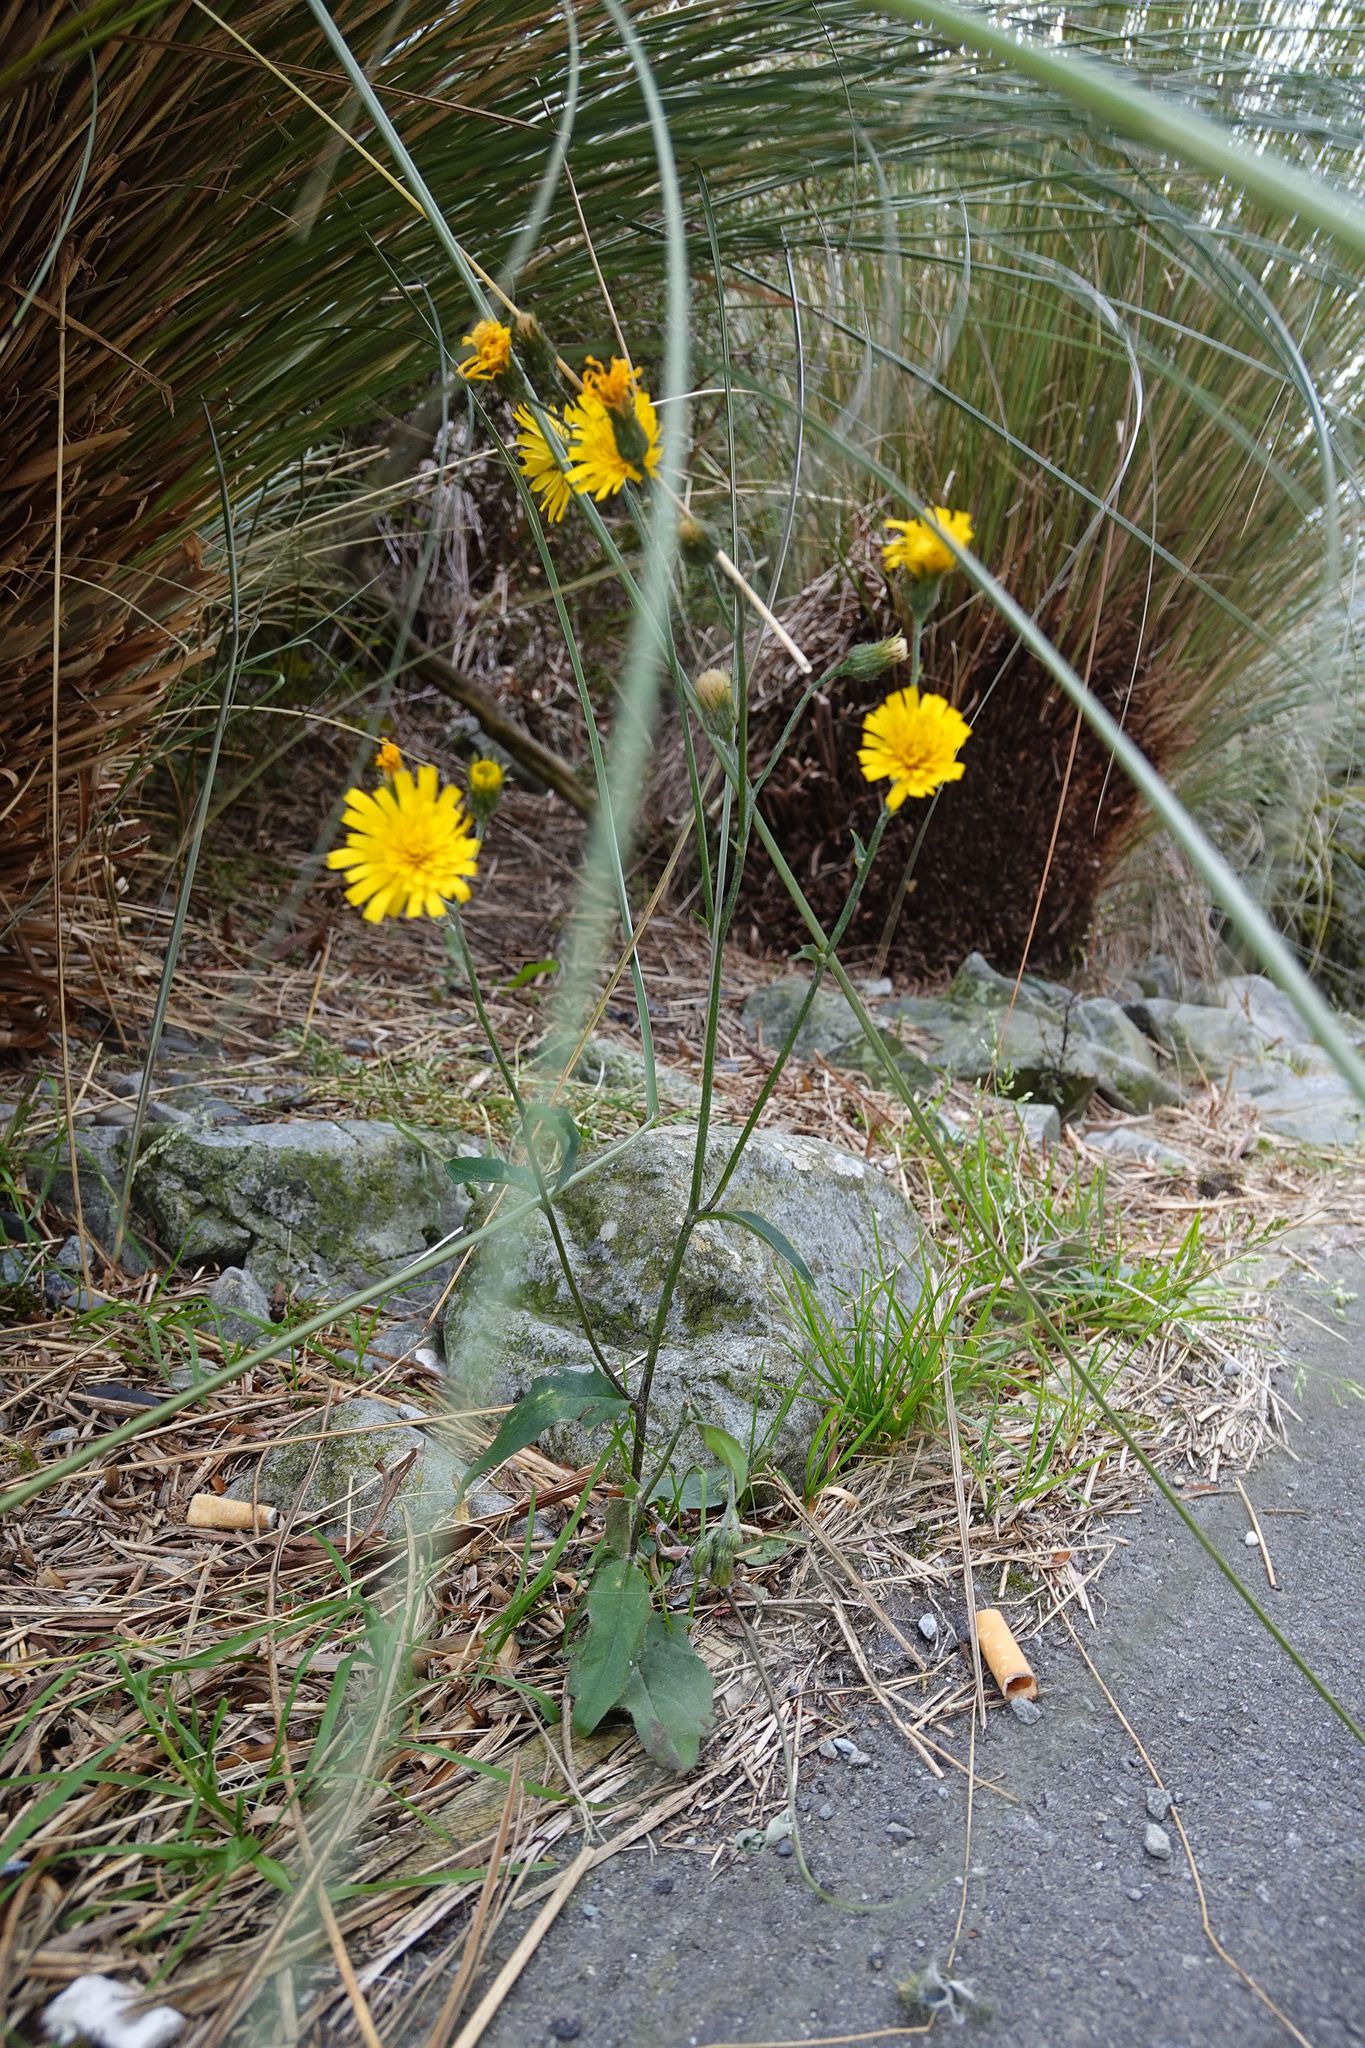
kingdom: Plantae
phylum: Tracheophyta
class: Magnoliopsida
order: Asterales
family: Asteraceae
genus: Hieracium
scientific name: Hieracium lepidulum
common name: Irregular-toothed hawkweed
